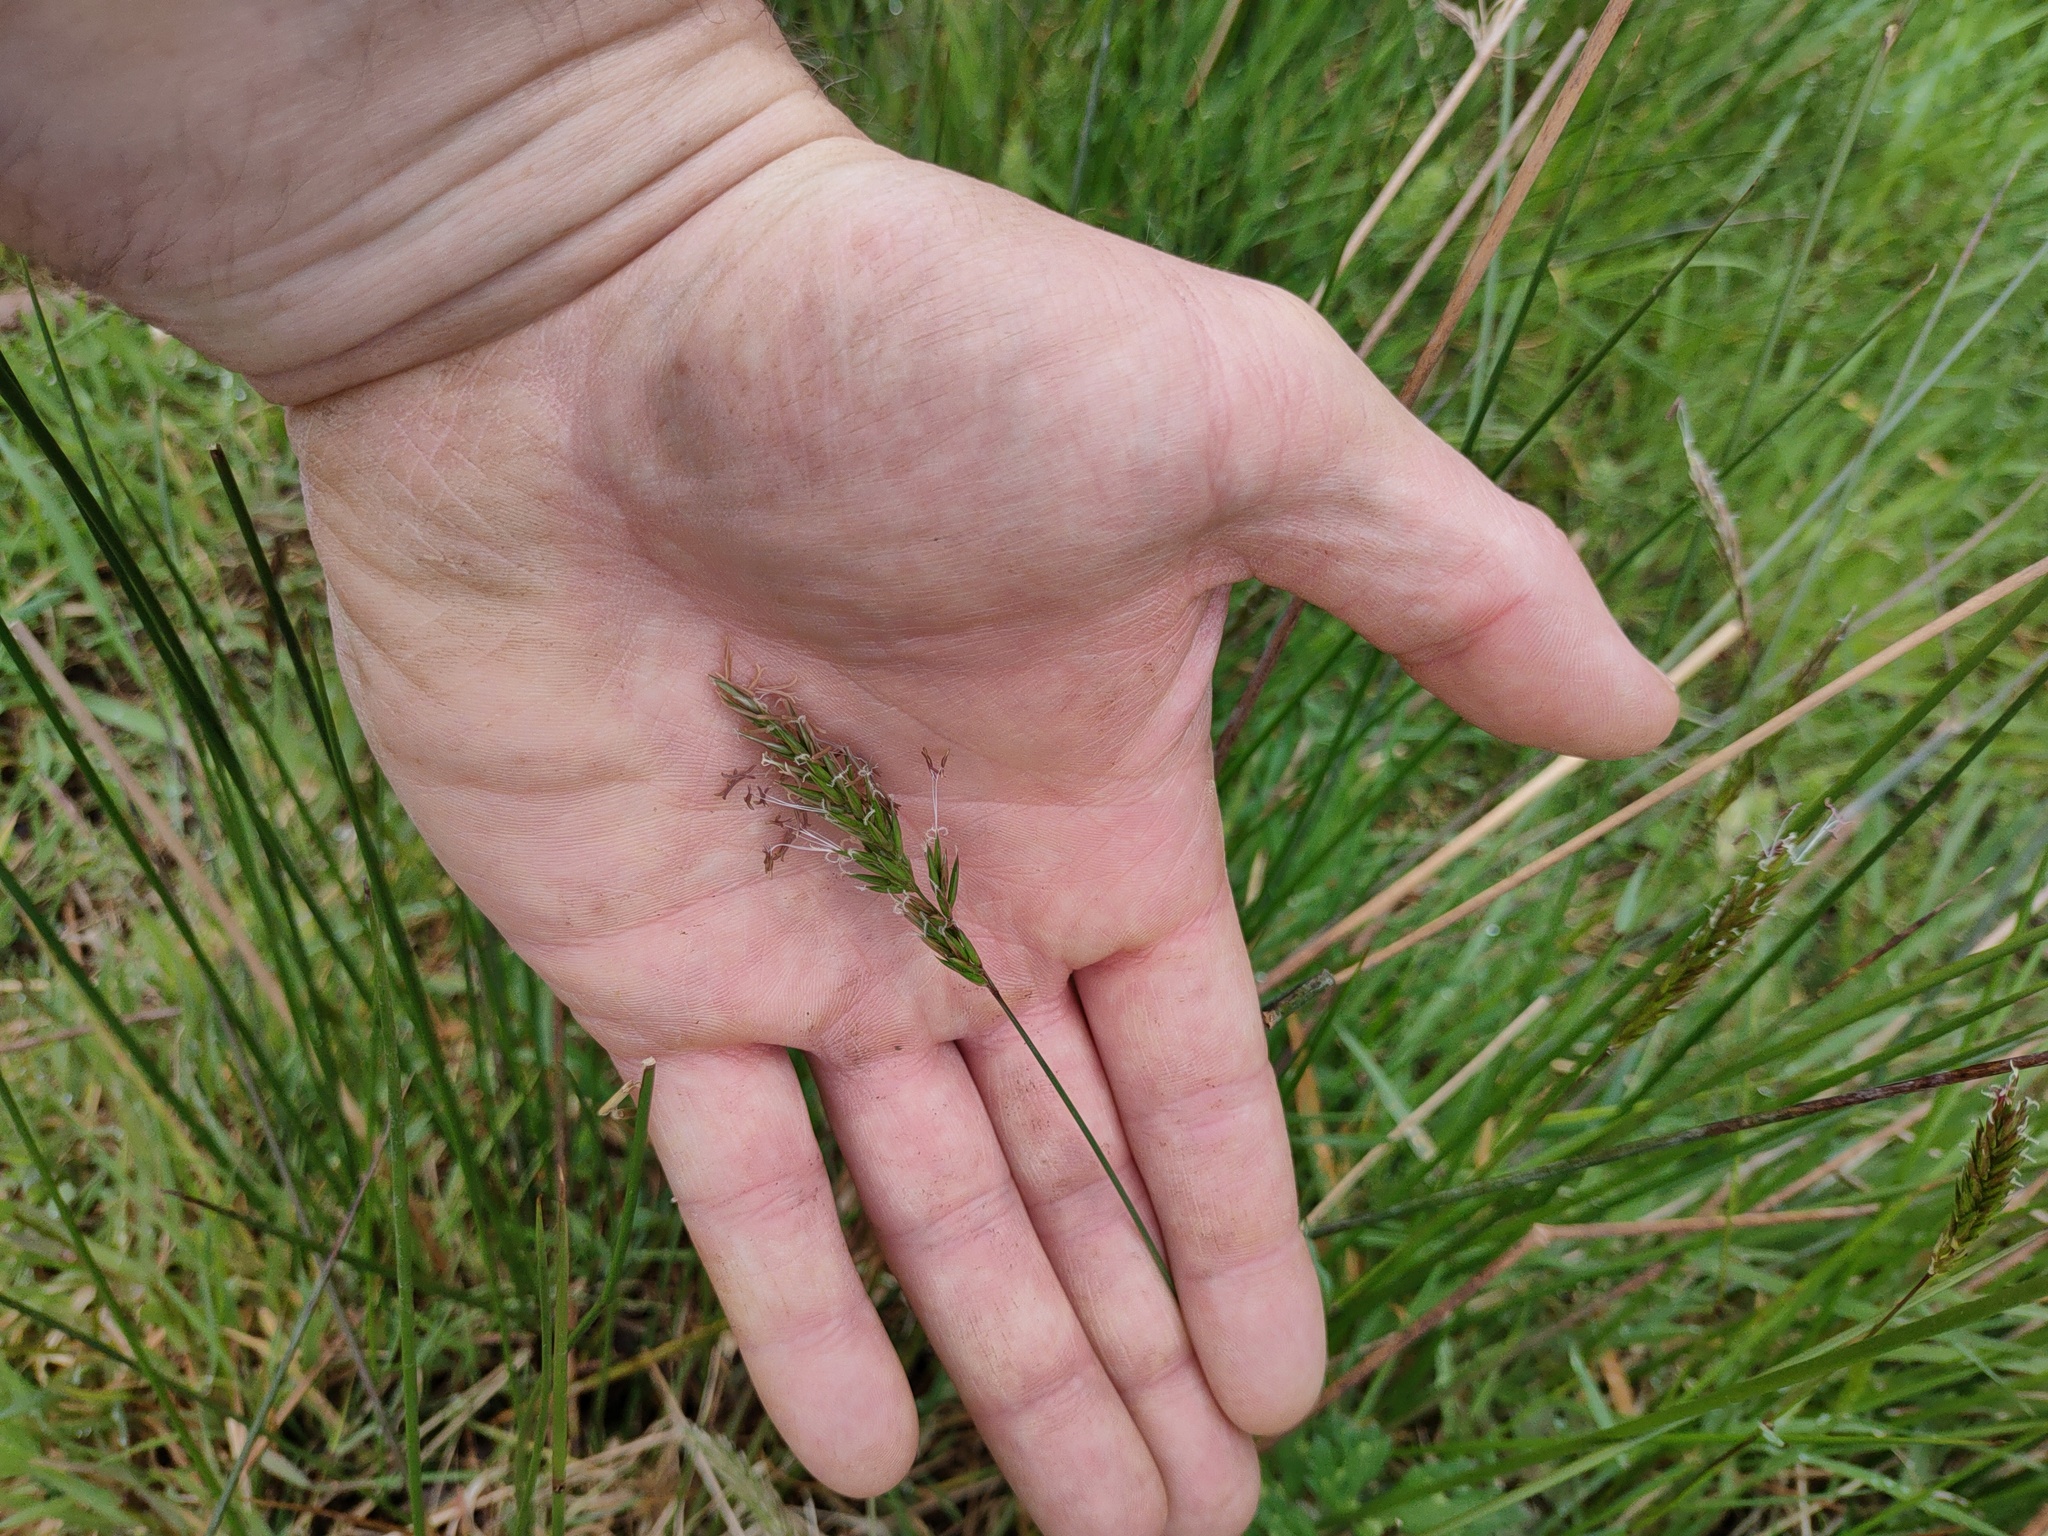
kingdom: Plantae
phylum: Tracheophyta
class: Liliopsida
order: Poales
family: Poaceae
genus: Anthoxanthum
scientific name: Anthoxanthum odoratum
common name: Sweet vernalgrass
